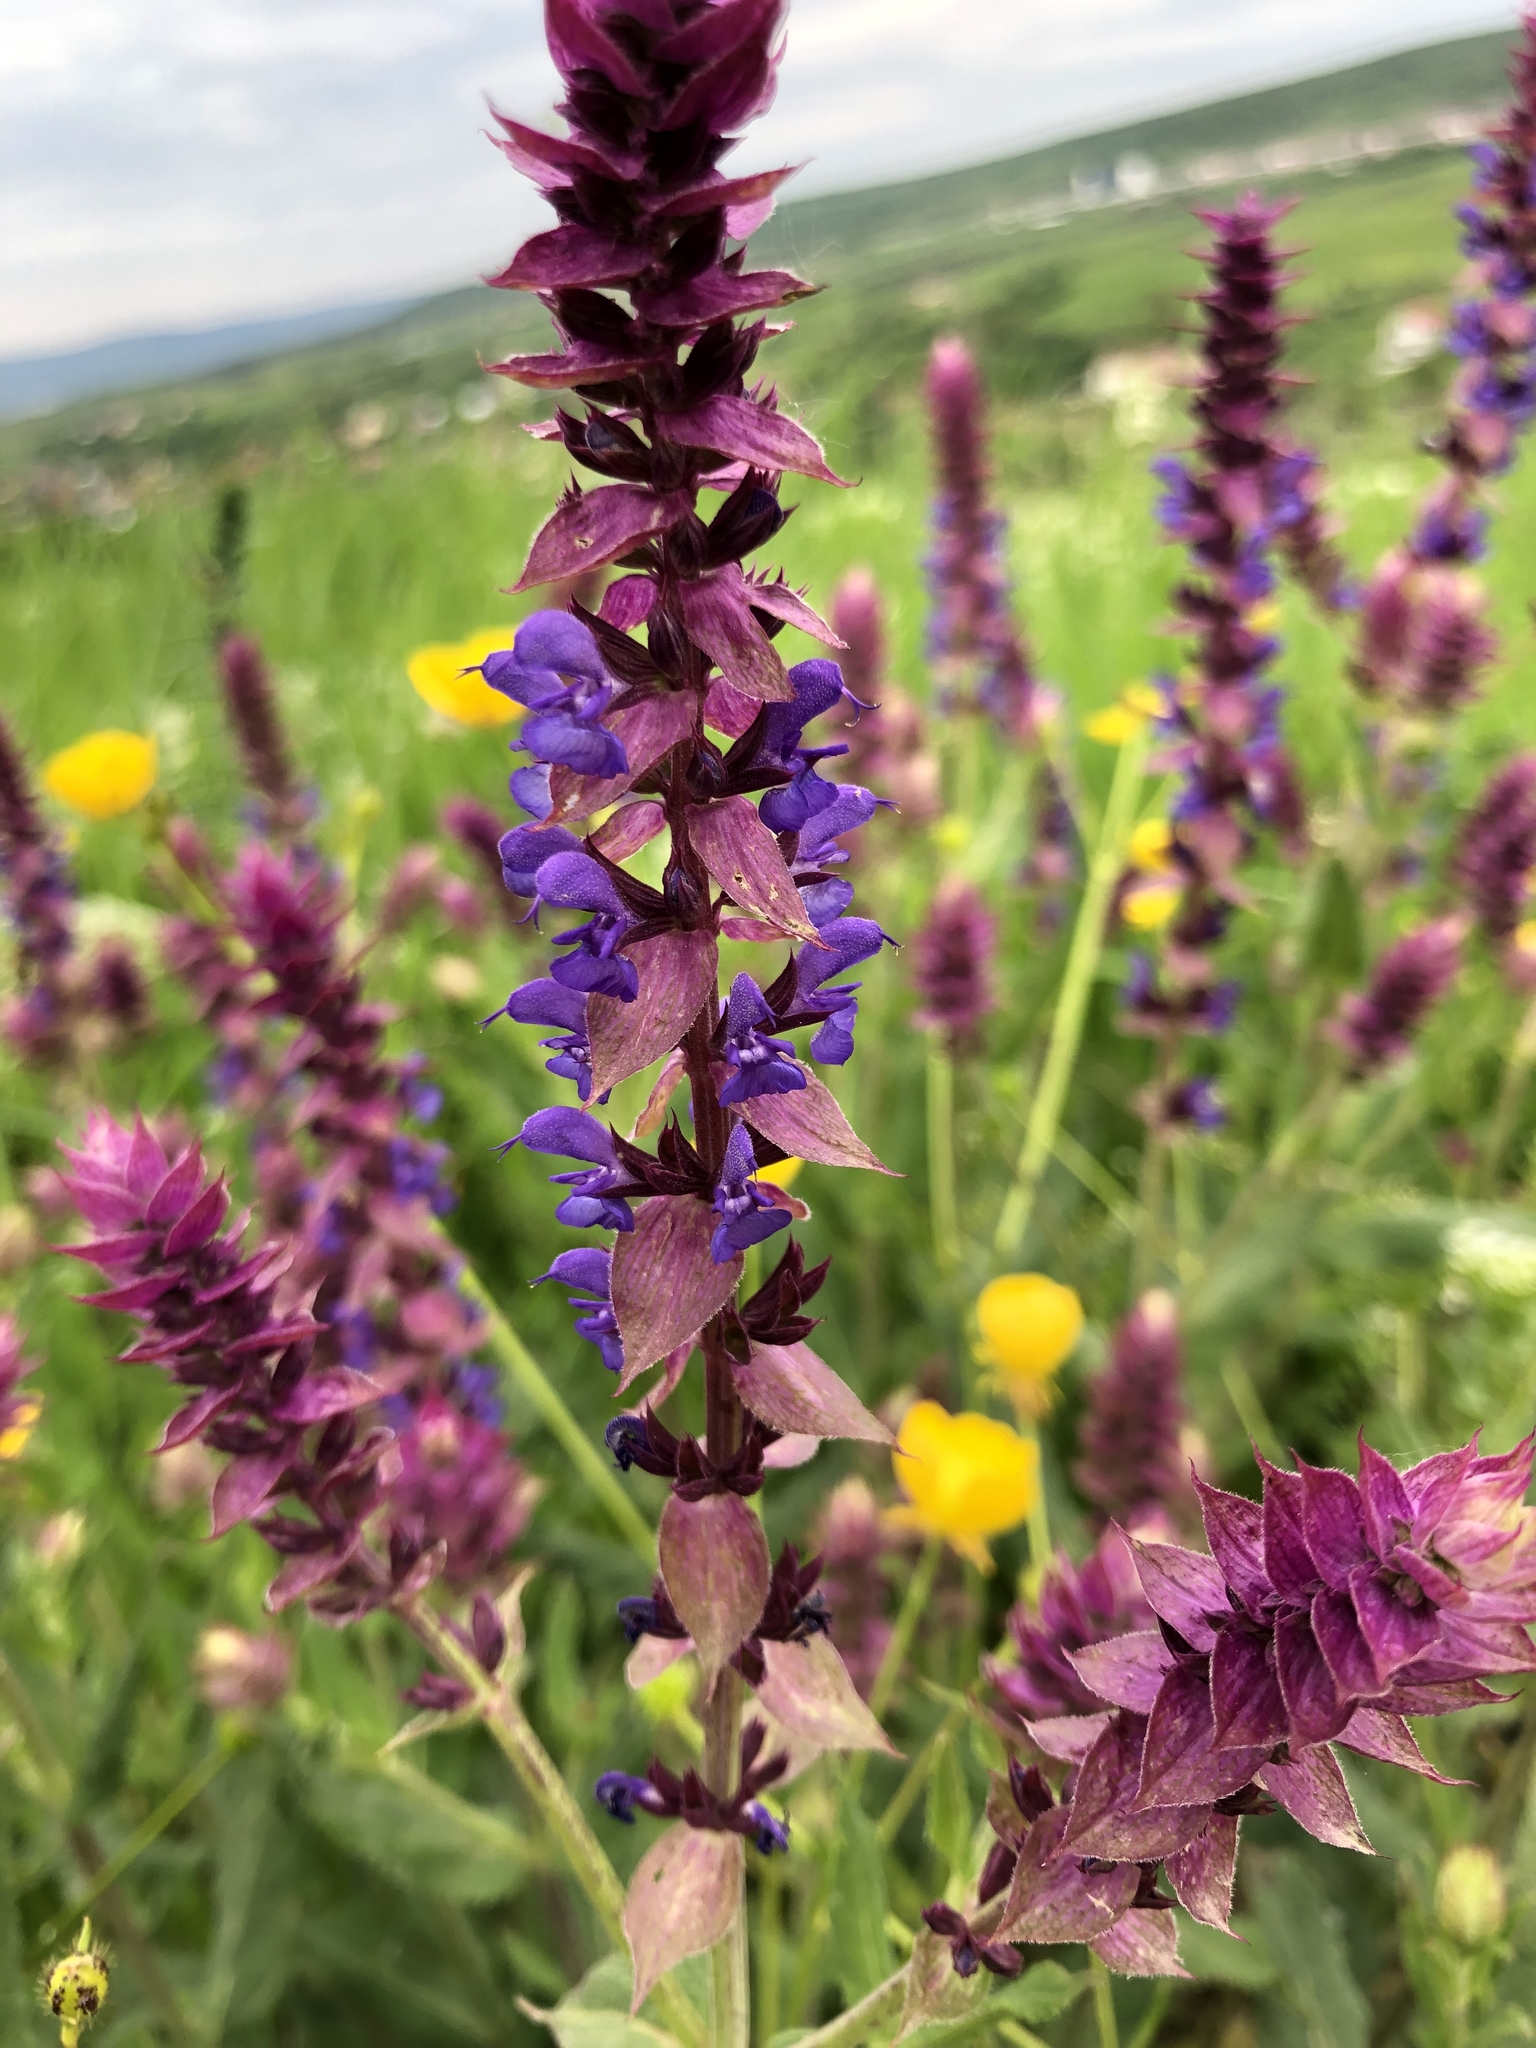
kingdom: Plantae
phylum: Tracheophyta
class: Magnoliopsida
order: Lamiales
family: Lamiaceae
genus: Salvia
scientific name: Salvia nemorosa
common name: Balkan clary
